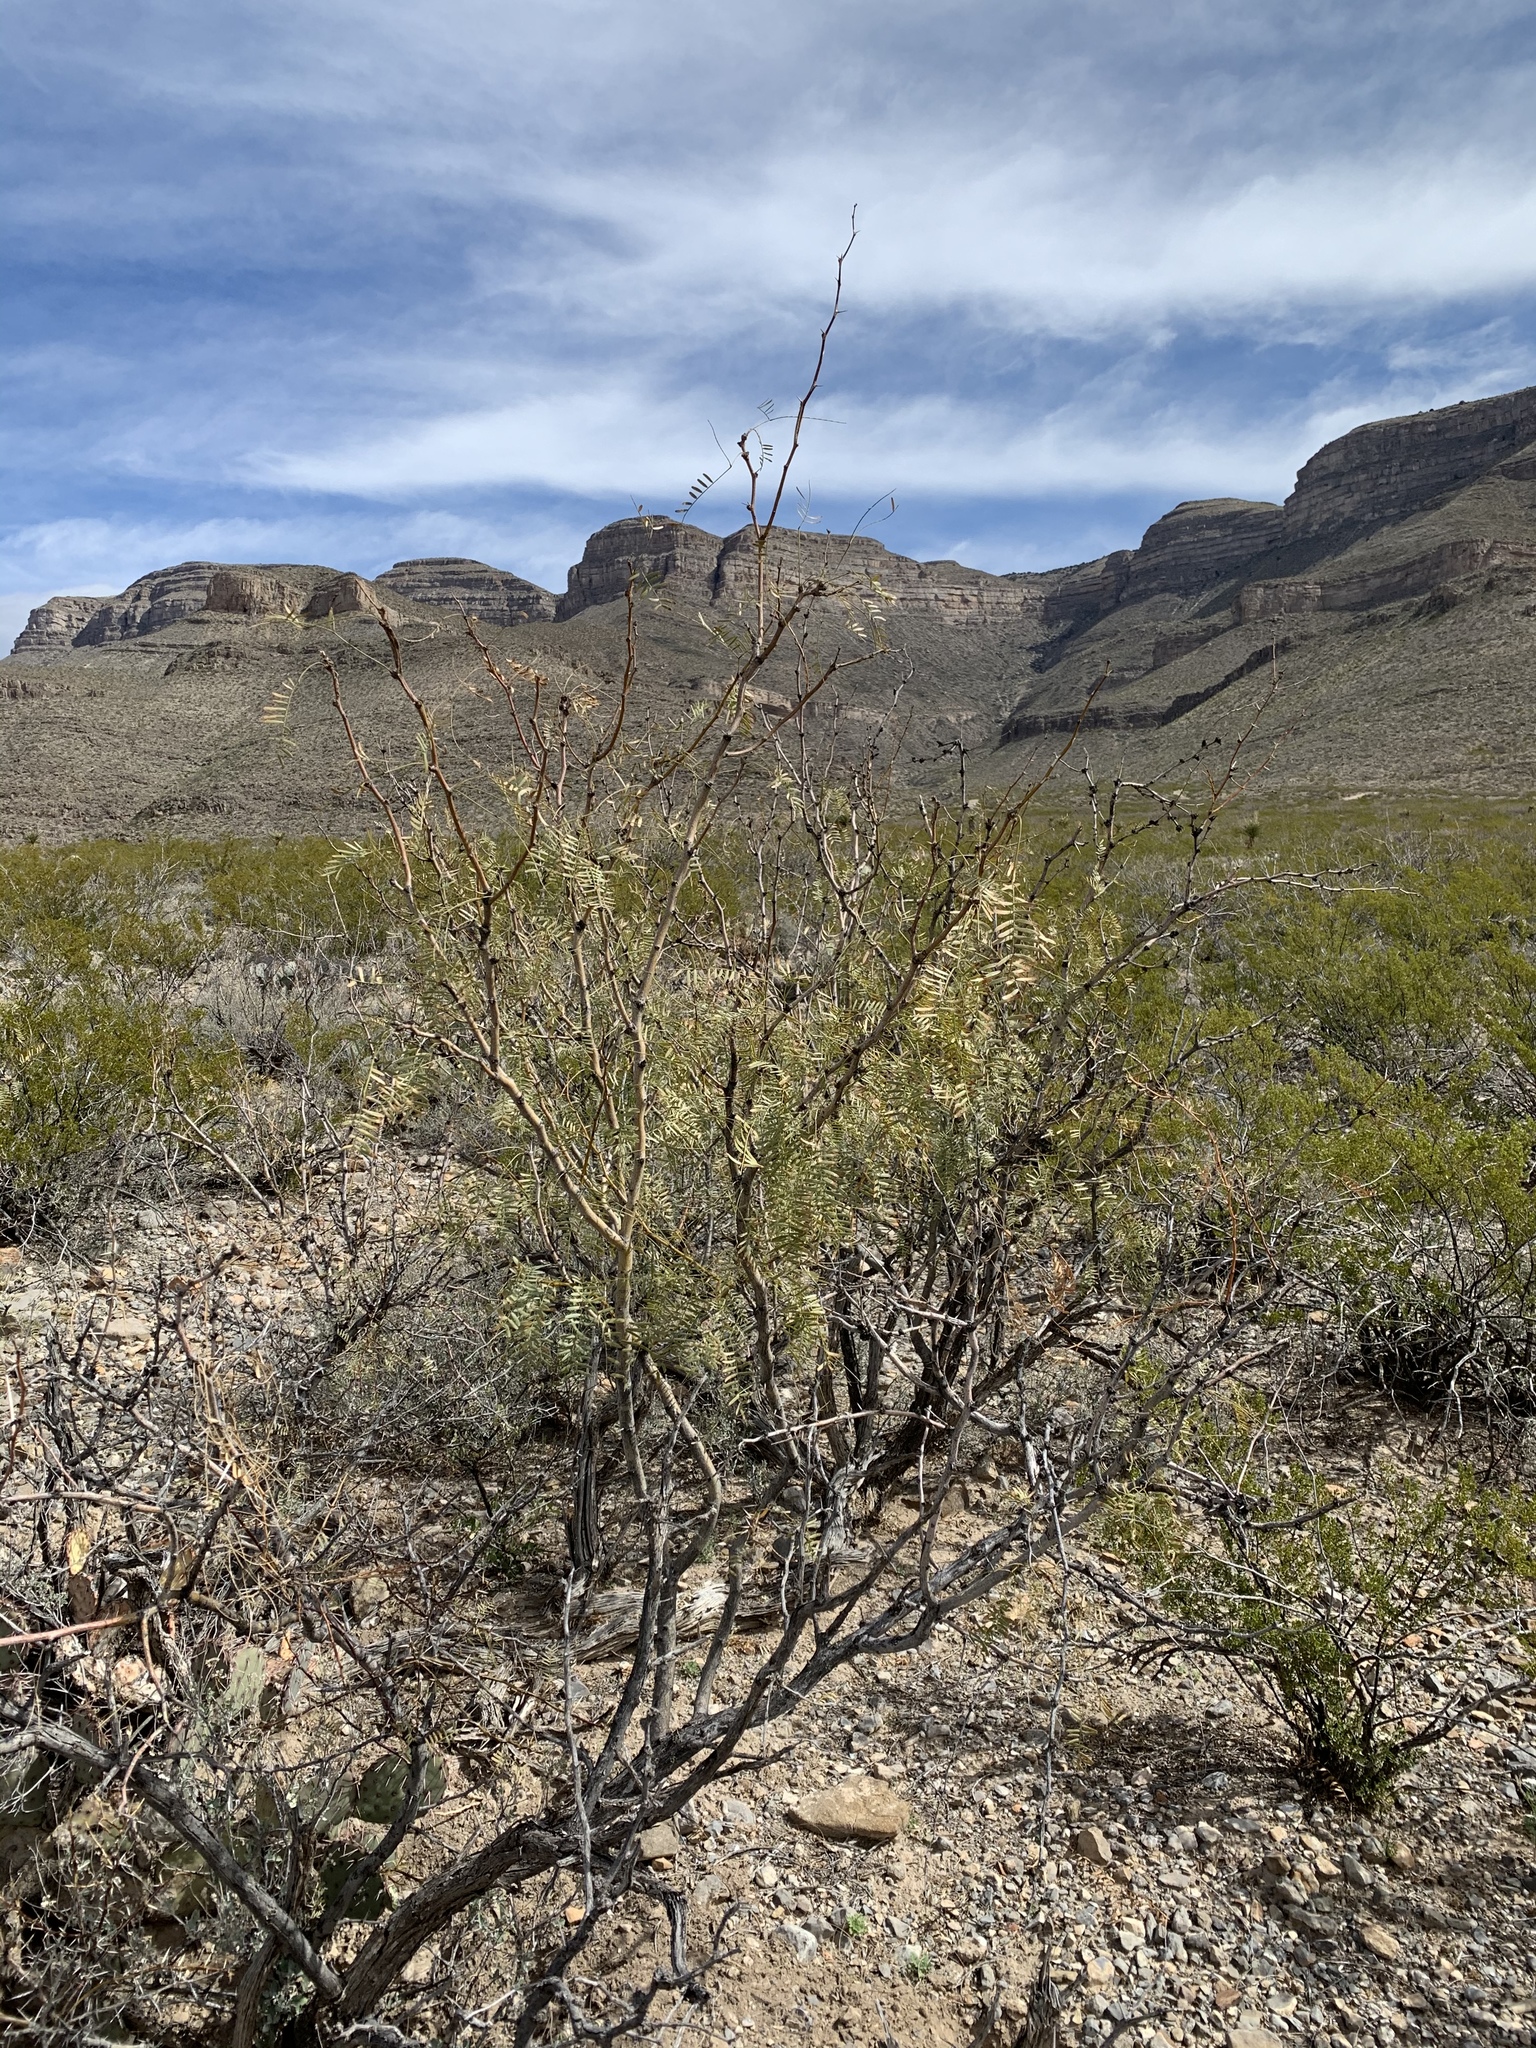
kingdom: Plantae
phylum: Tracheophyta
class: Magnoliopsida
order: Fabales
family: Fabaceae
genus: Prosopis
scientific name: Prosopis glandulosa
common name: Honey mesquite
